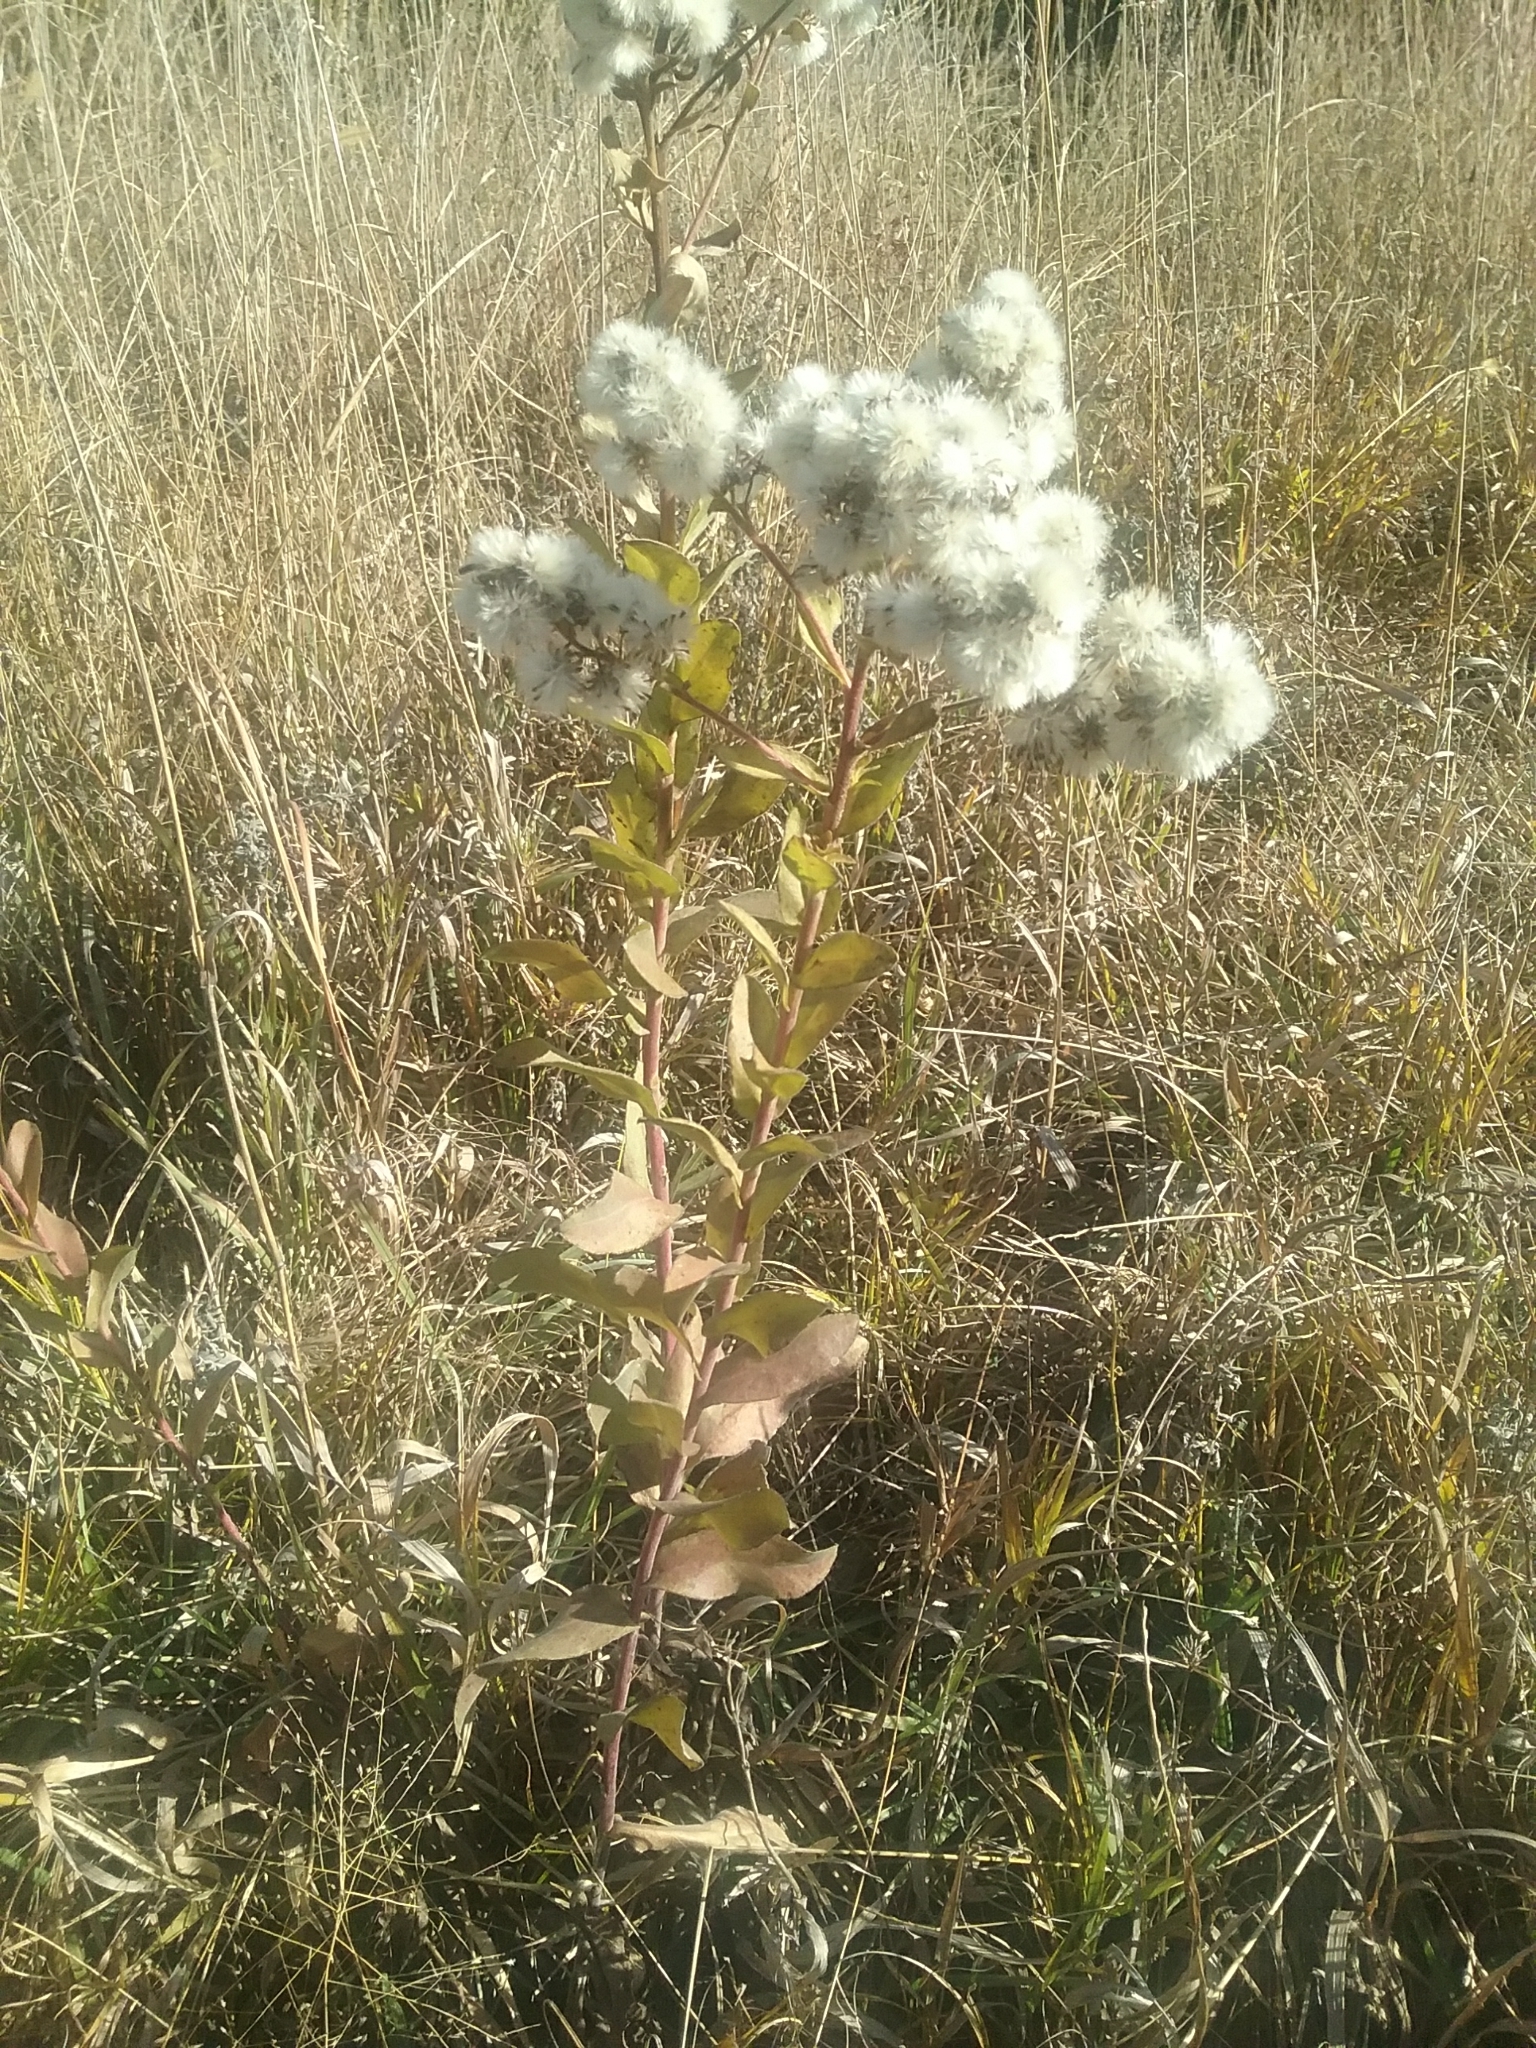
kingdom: Plantae
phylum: Tracheophyta
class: Magnoliopsida
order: Asterales
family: Asteraceae
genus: Solidago
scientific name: Solidago rigida
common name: Rigid goldenrod
